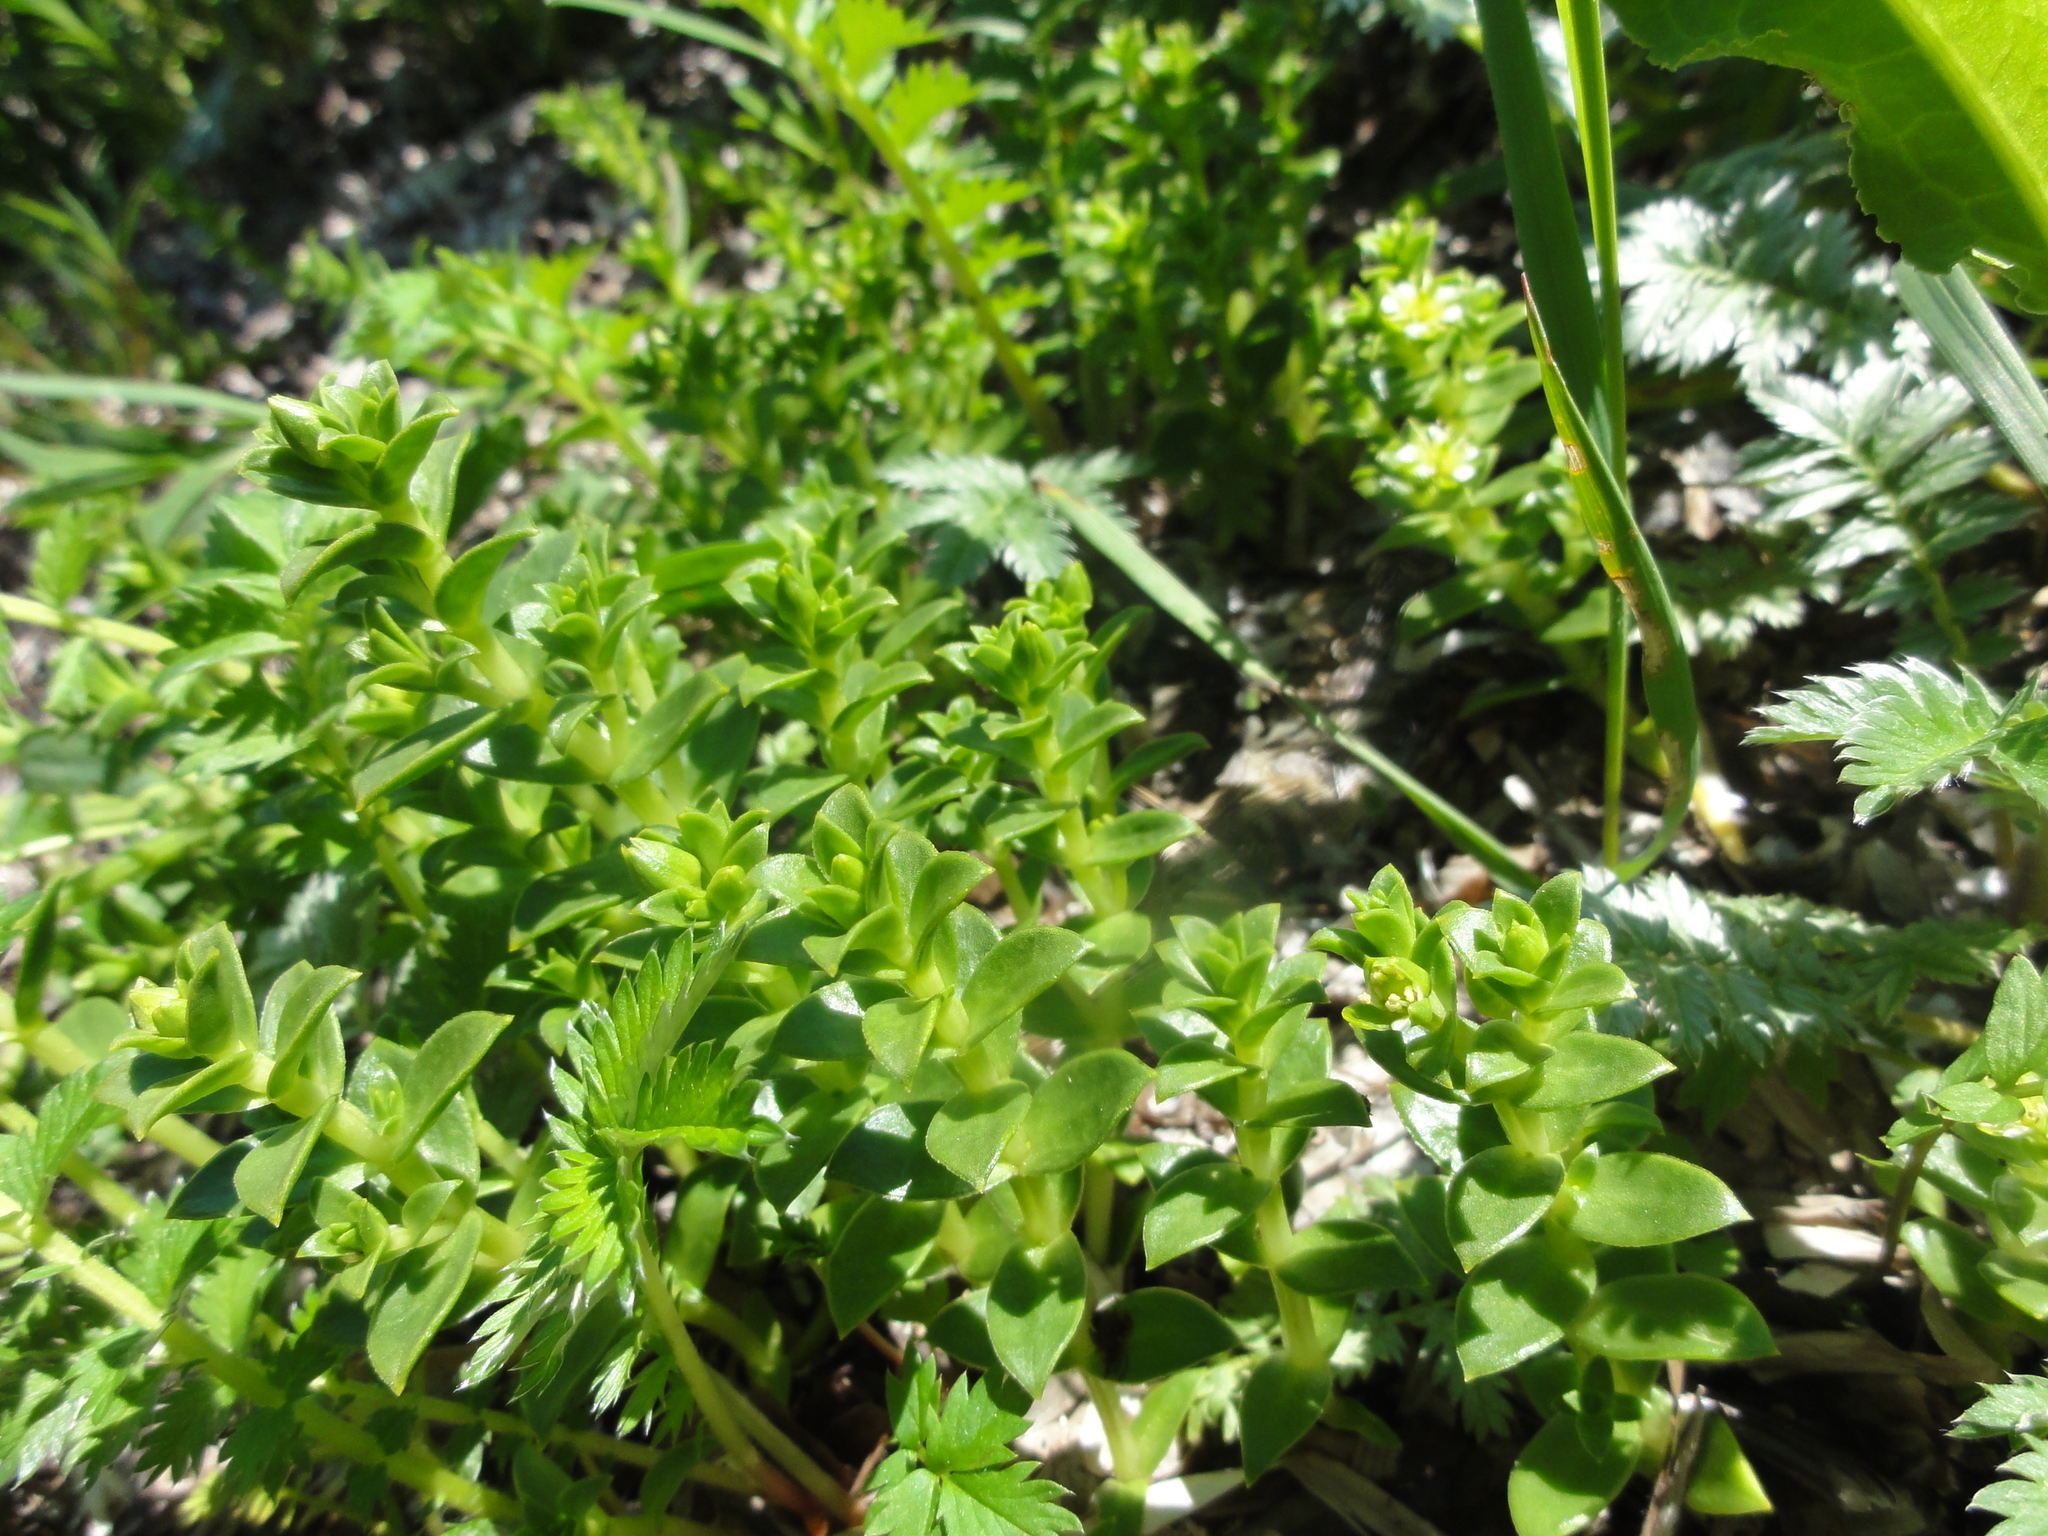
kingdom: Plantae
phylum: Tracheophyta
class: Magnoliopsida
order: Caryophyllales
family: Caryophyllaceae
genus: Honckenya
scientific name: Honckenya peploides
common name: Sea sandwort
